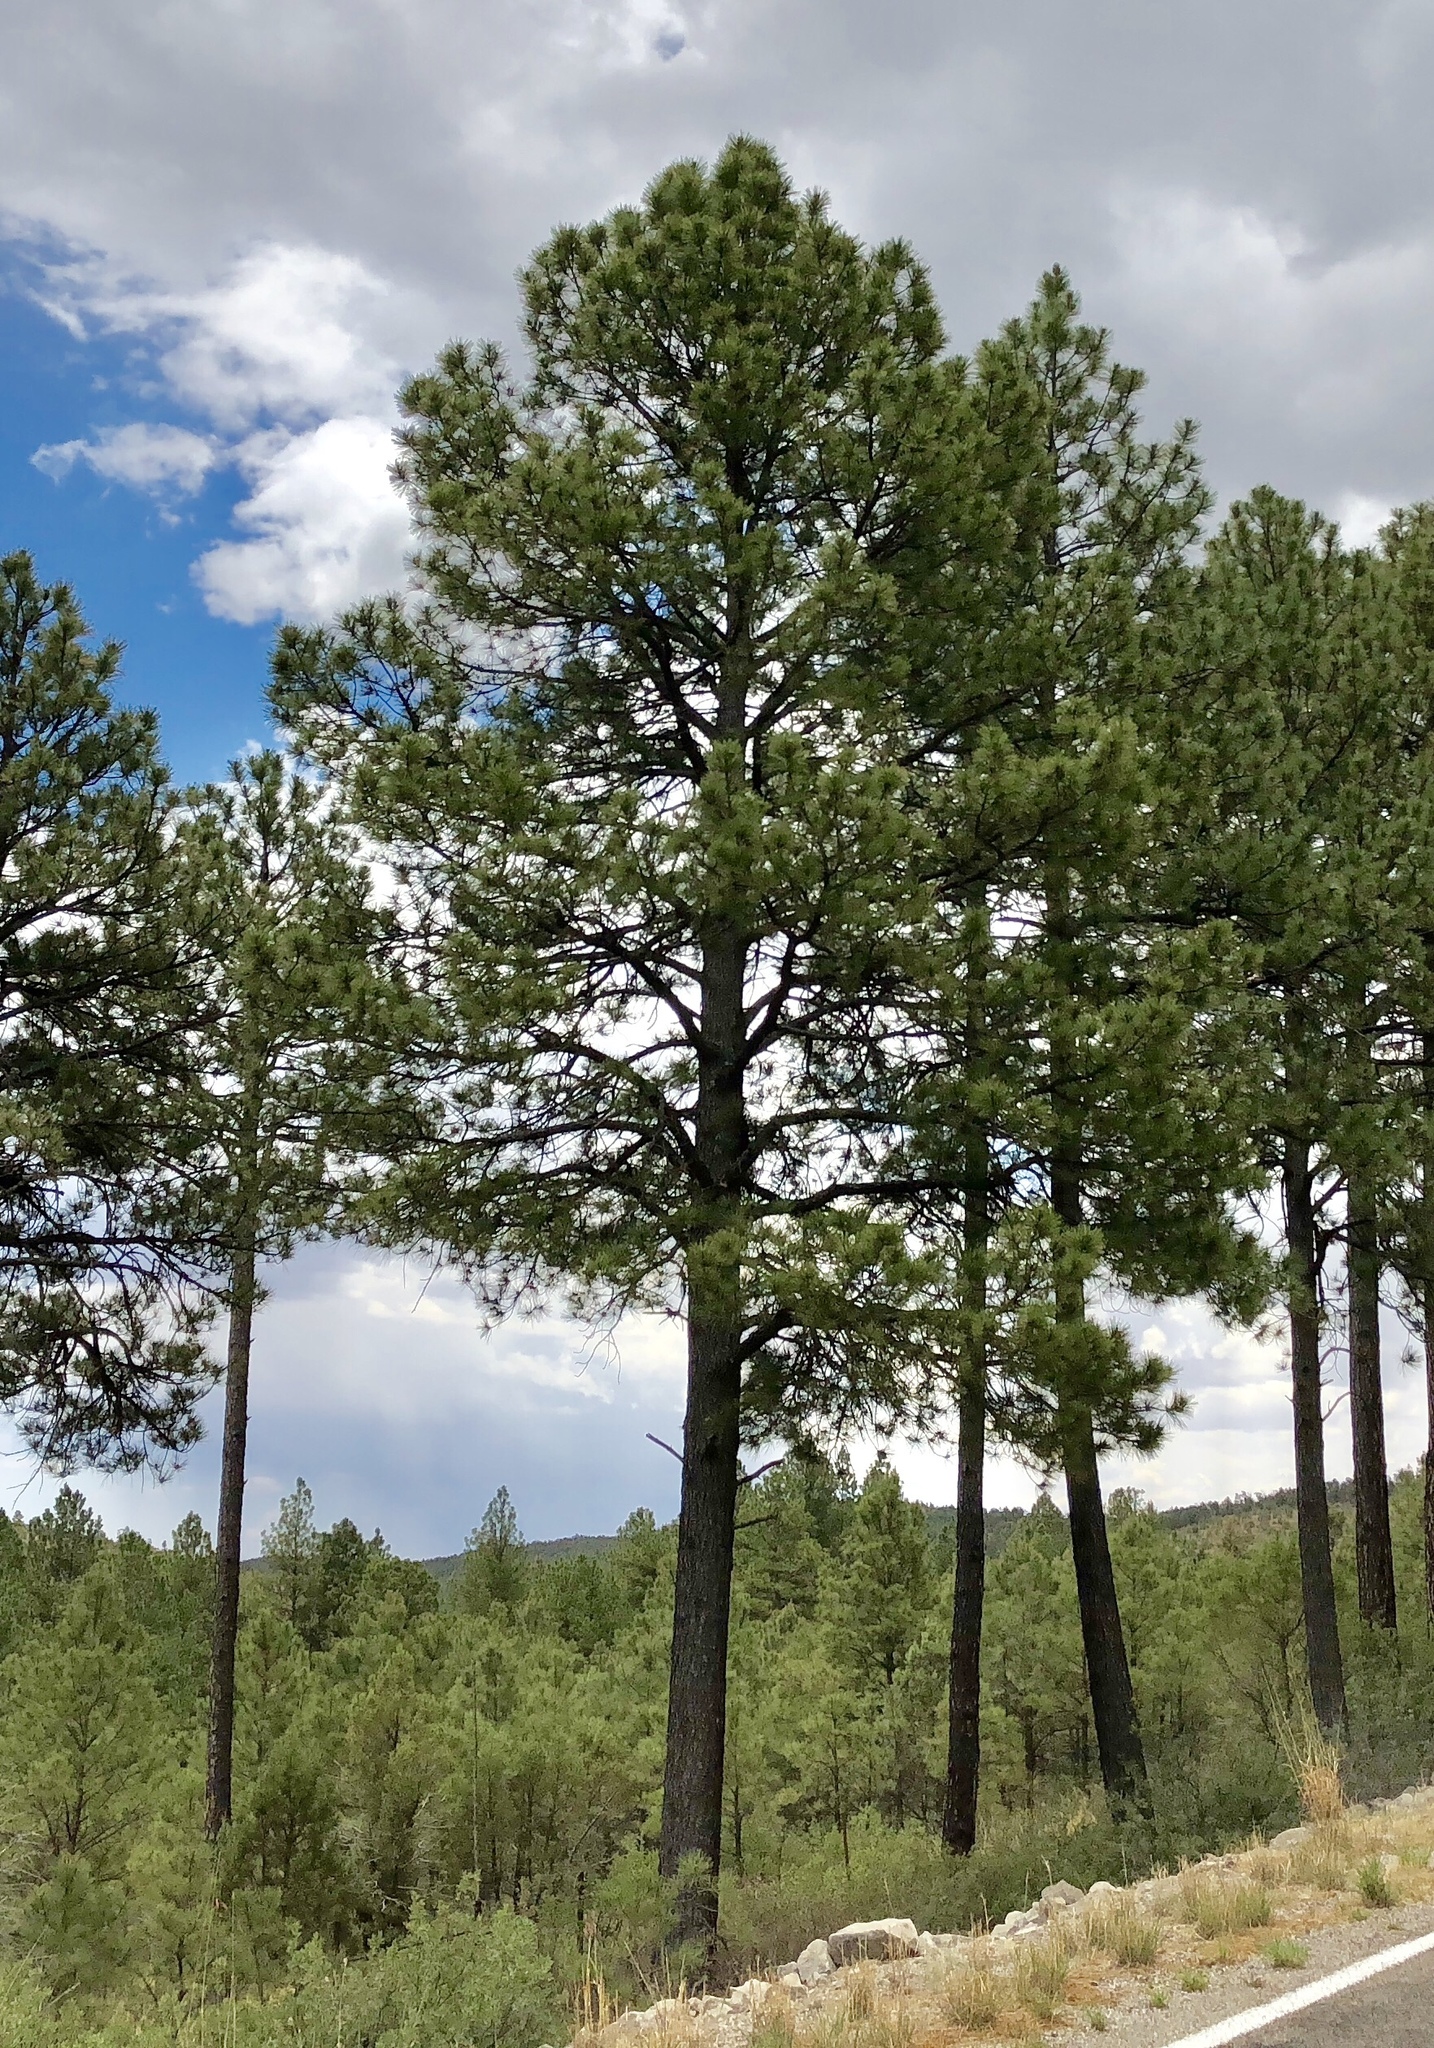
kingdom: Plantae
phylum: Tracheophyta
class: Pinopsida
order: Pinales
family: Pinaceae
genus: Pinus
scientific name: Pinus ponderosa
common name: Western yellow-pine
